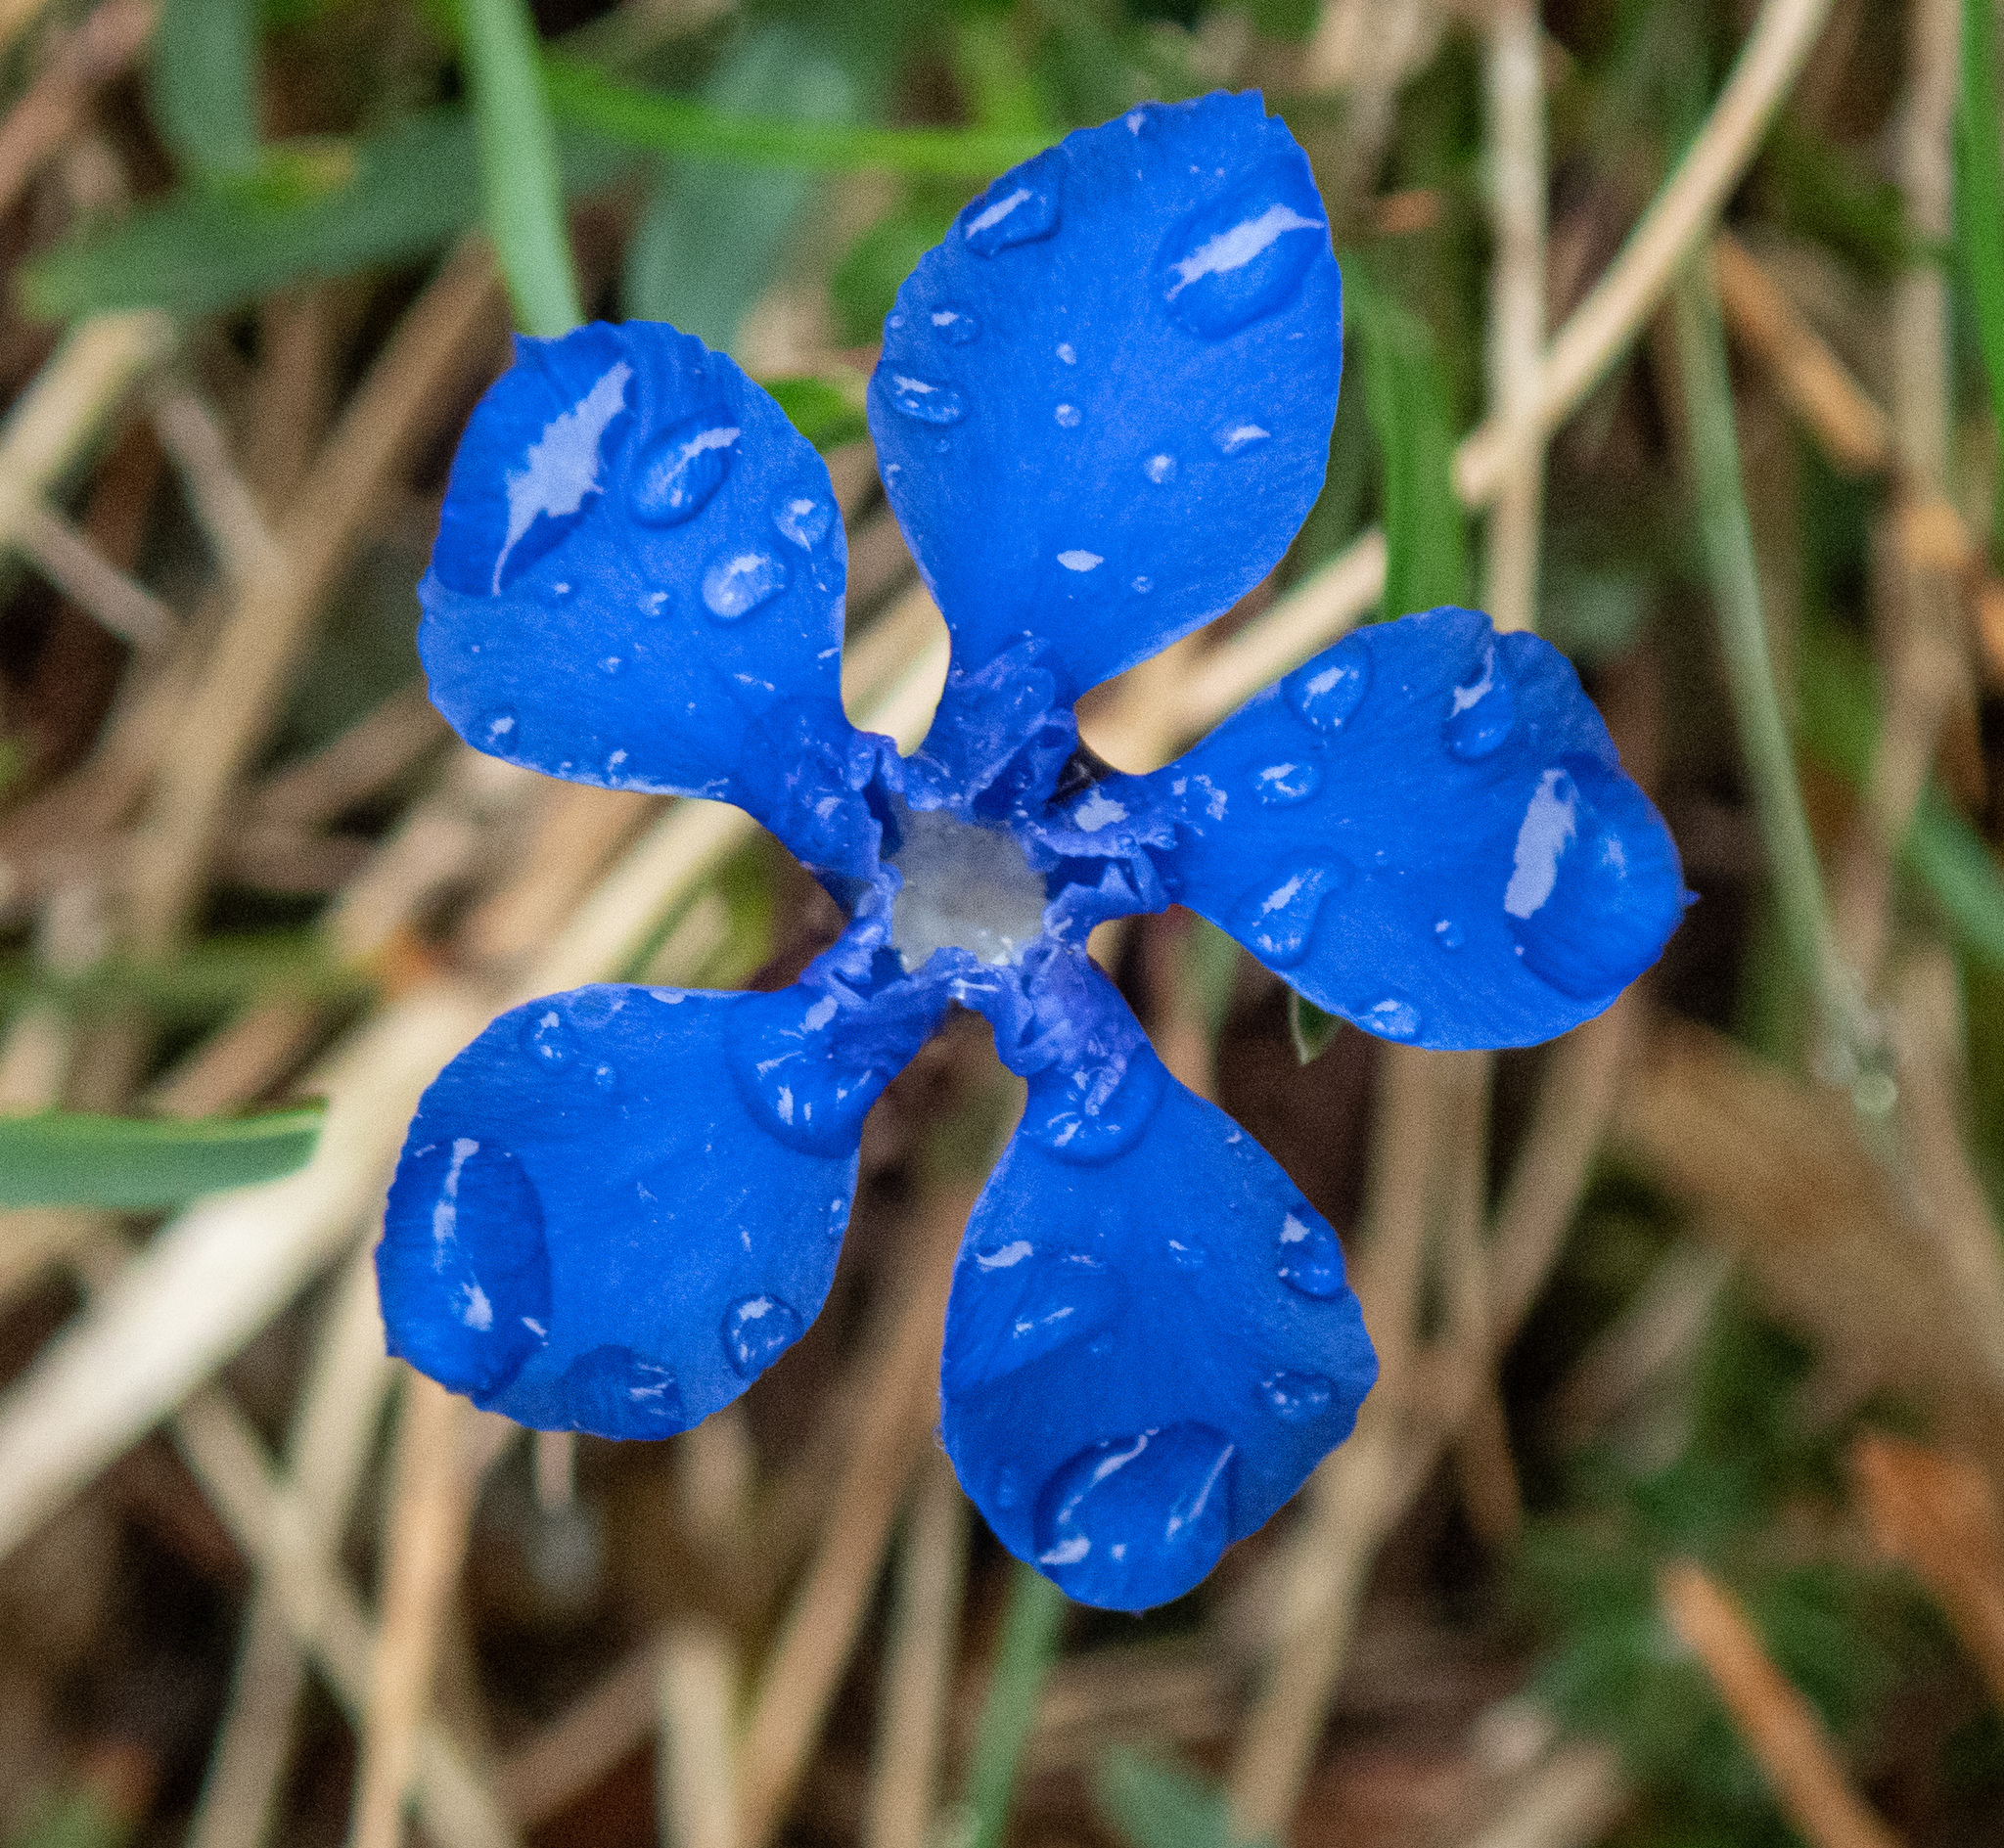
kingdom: Plantae
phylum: Tracheophyta
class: Magnoliopsida
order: Gentianales
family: Gentianaceae
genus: Gentiana
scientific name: Gentiana verna
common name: Spring gentian
